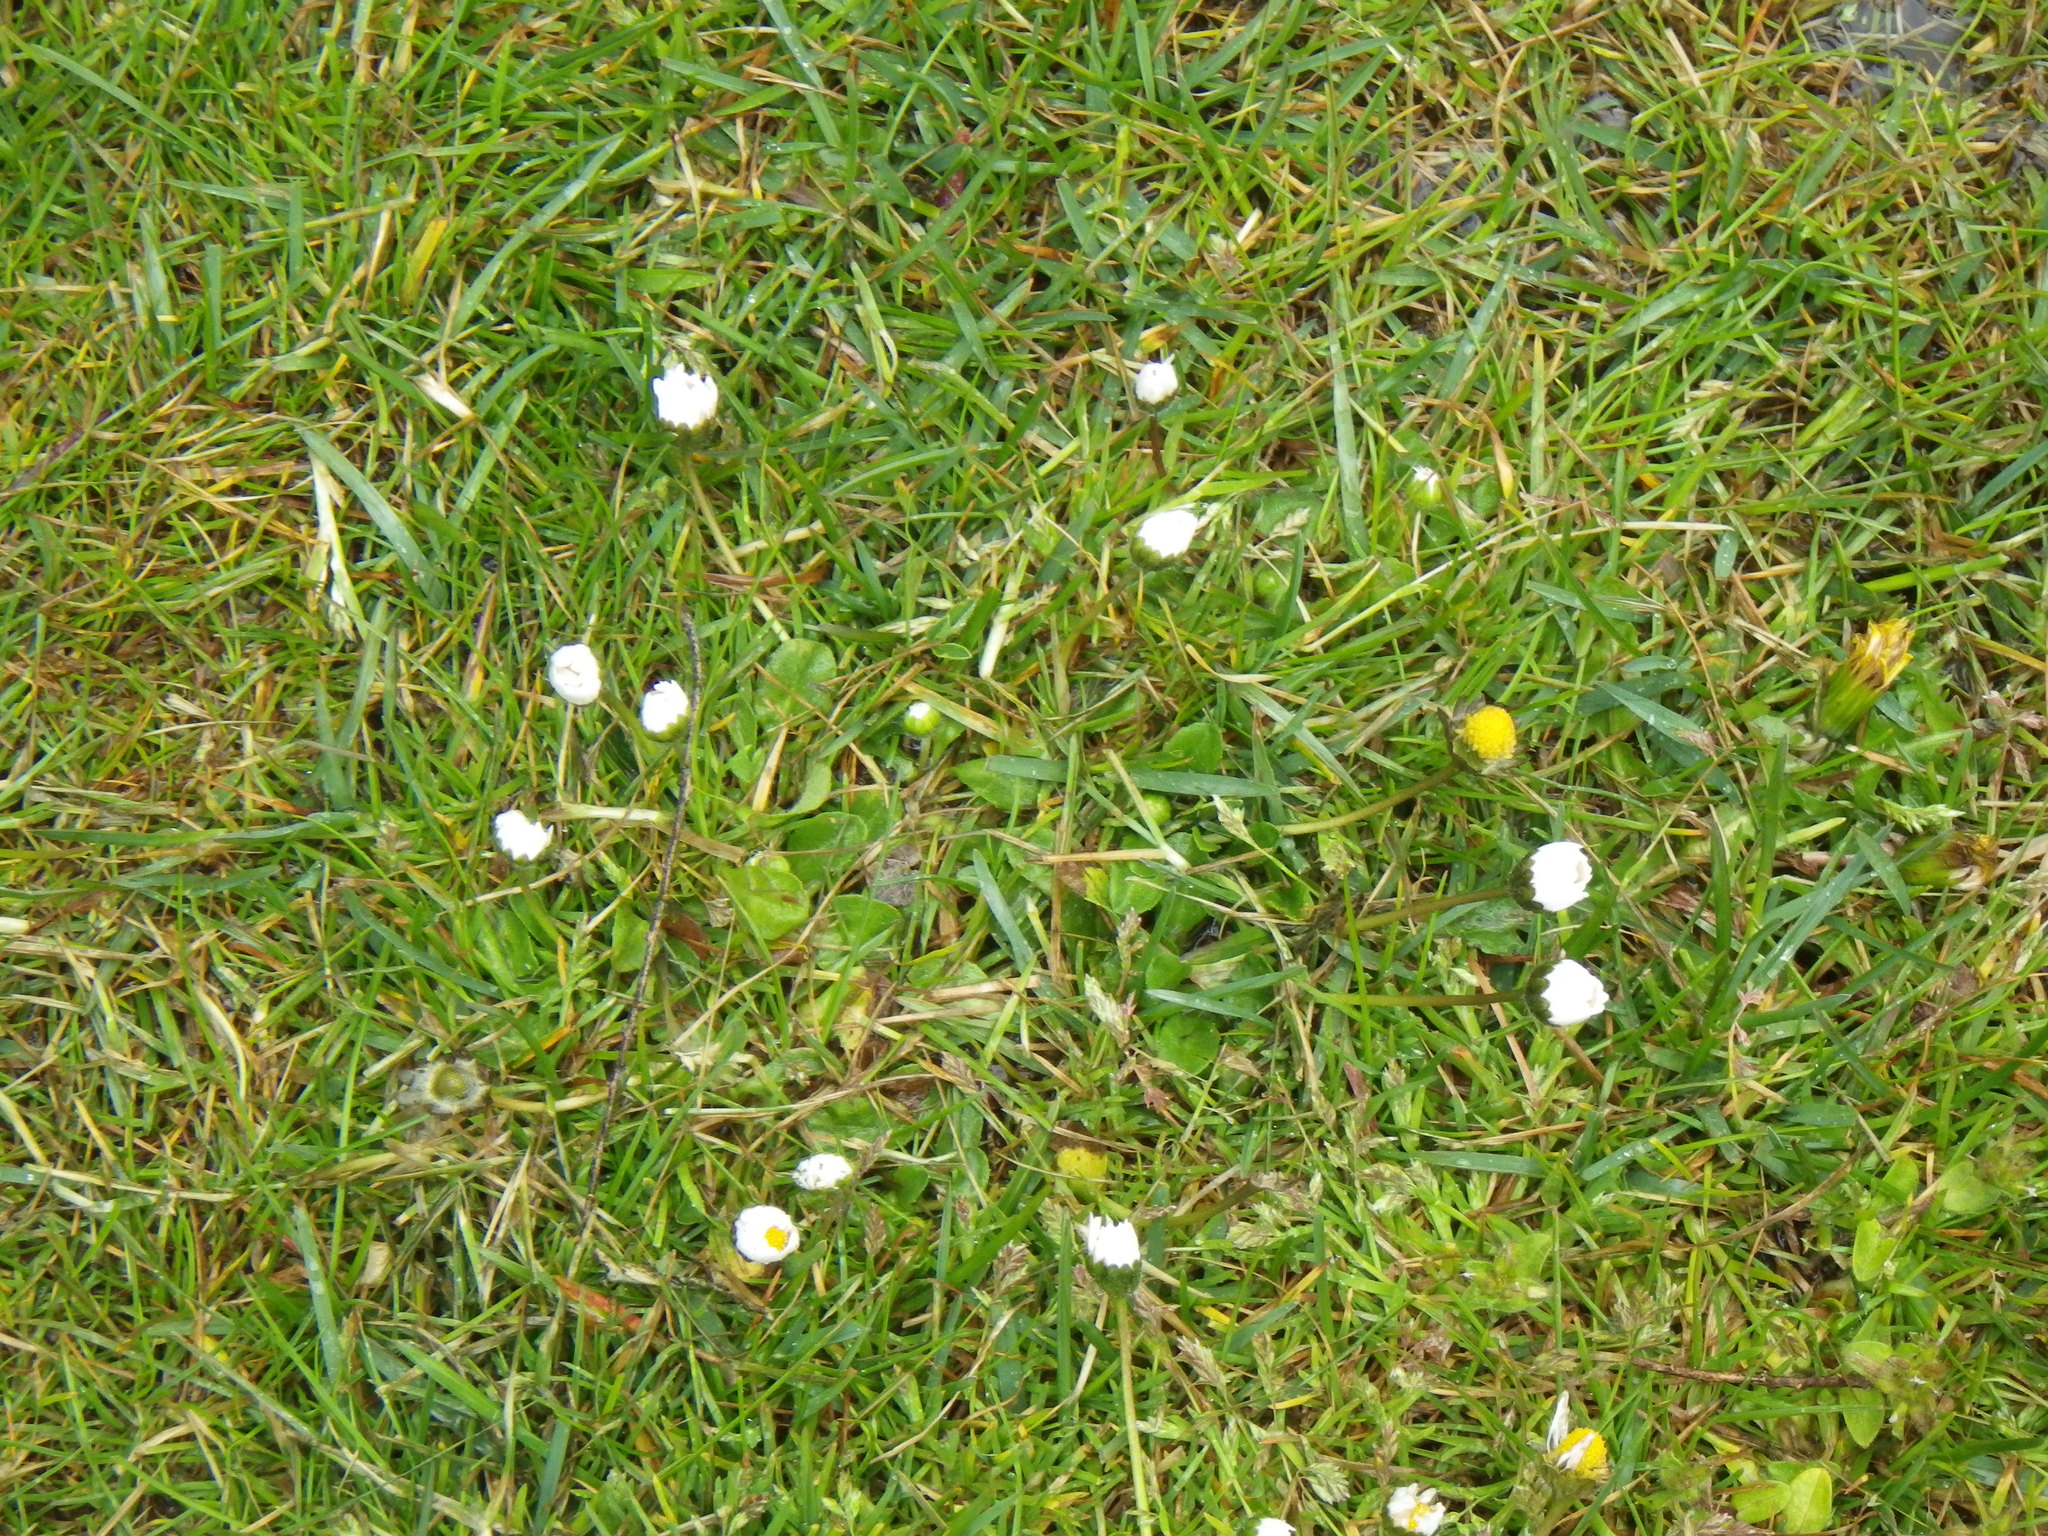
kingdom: Plantae
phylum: Tracheophyta
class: Magnoliopsida
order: Asterales
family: Asteraceae
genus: Bellis
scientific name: Bellis perennis
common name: Lawndaisy
